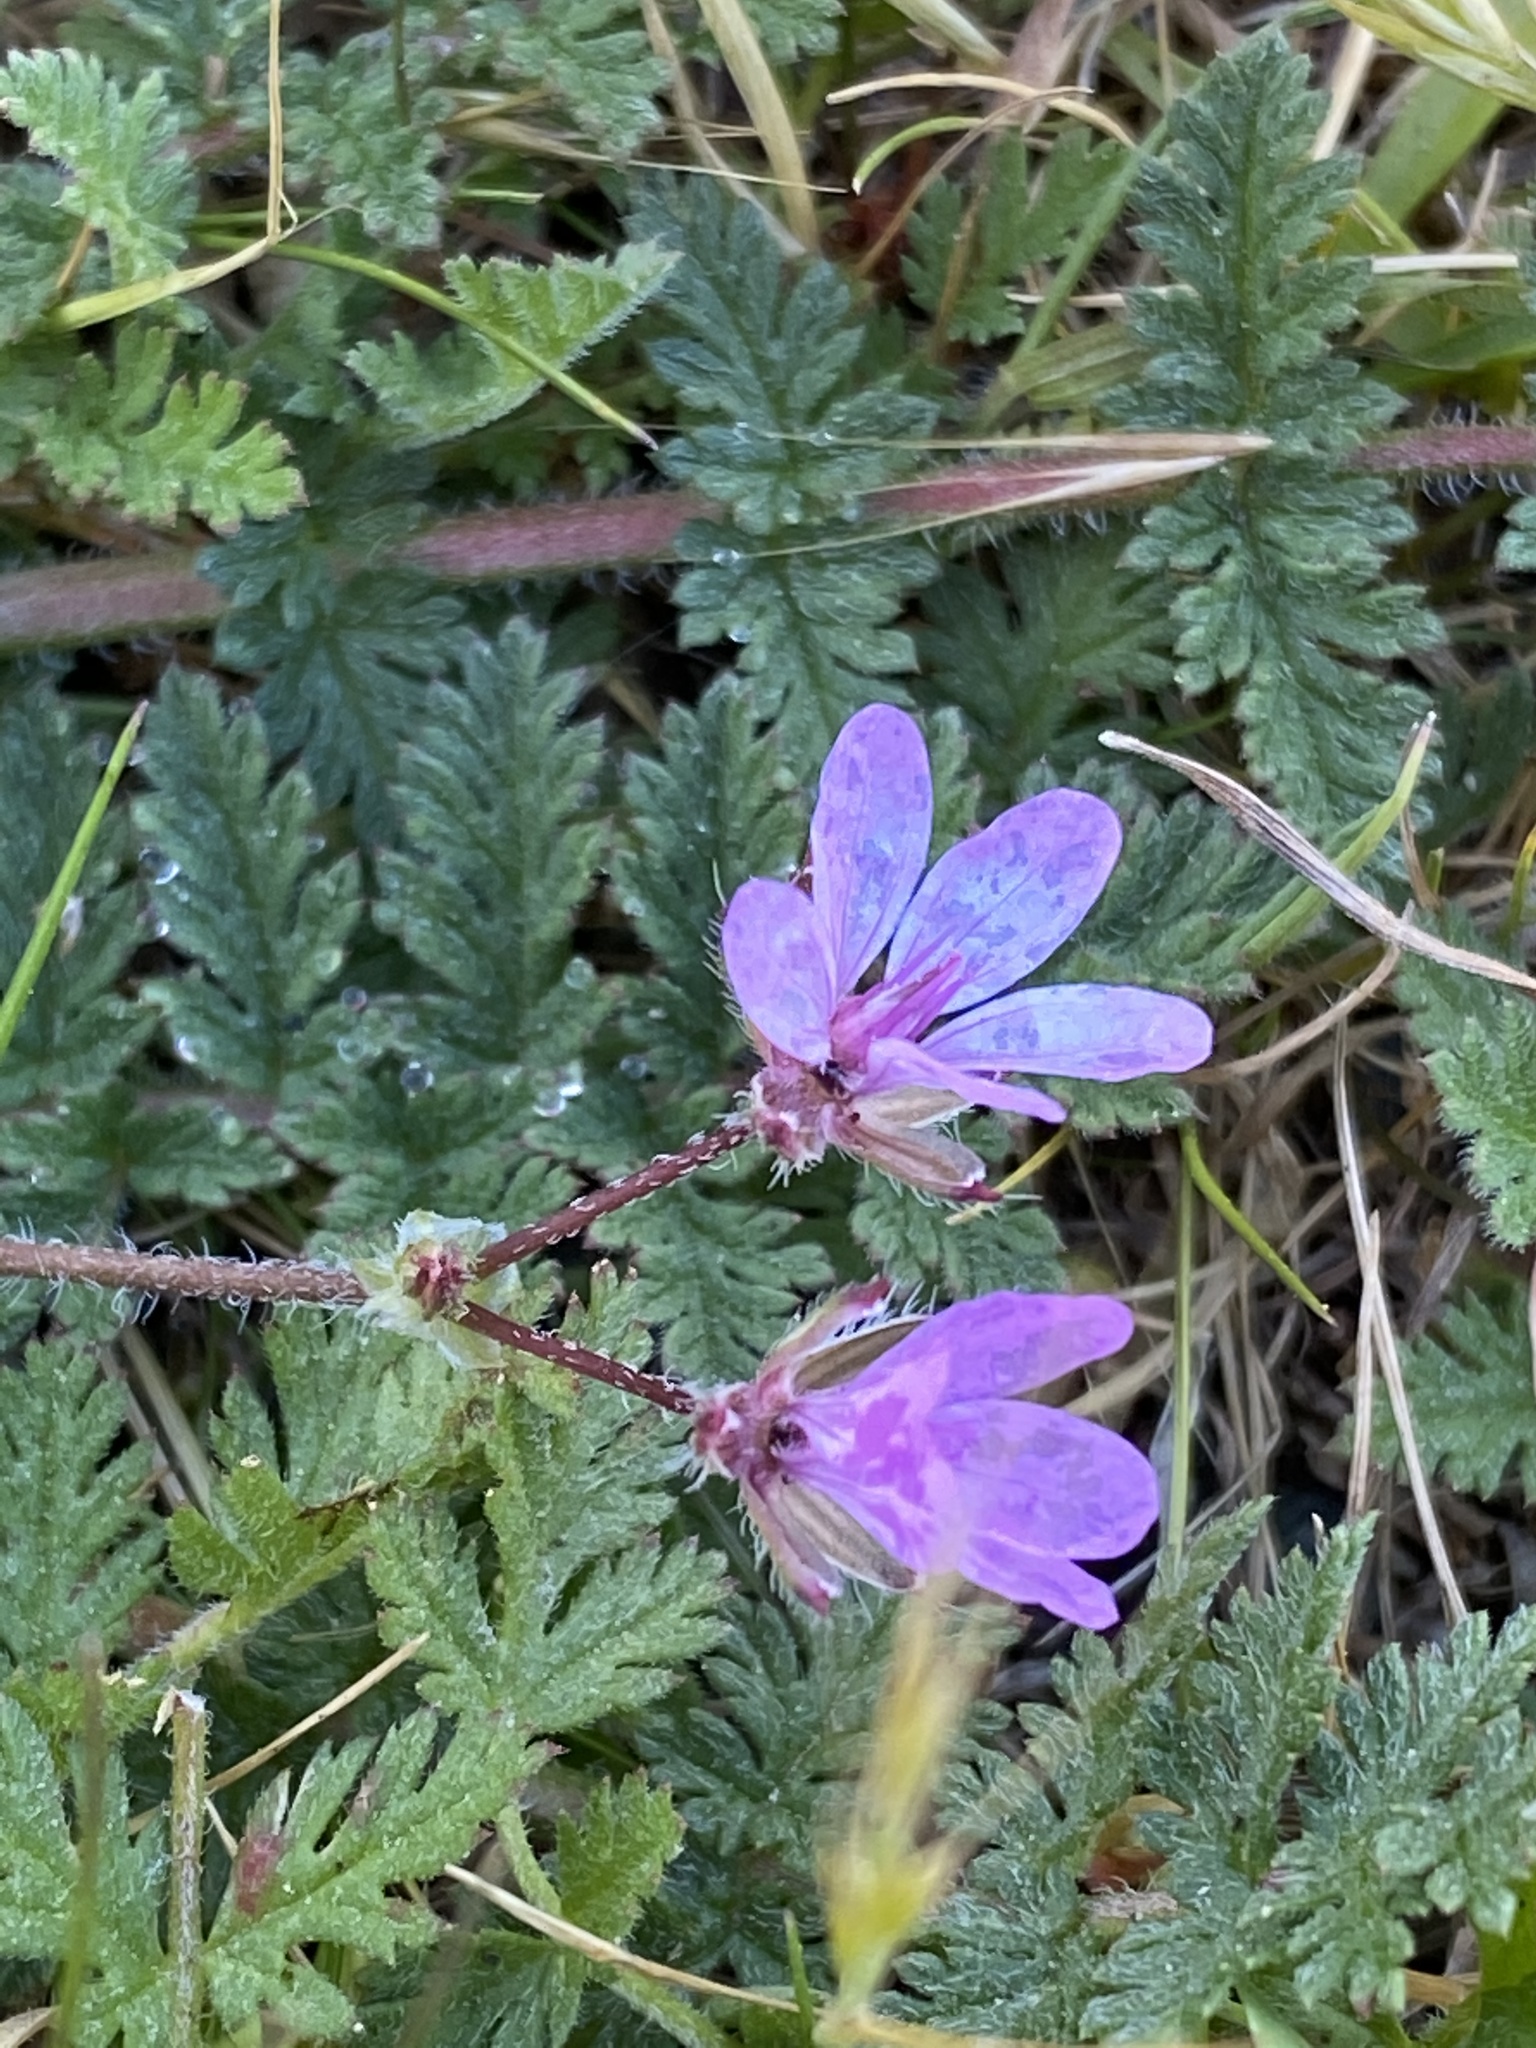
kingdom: Plantae
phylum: Tracheophyta
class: Magnoliopsida
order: Geraniales
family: Geraniaceae
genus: Erodium
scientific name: Erodium cicutarium
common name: Common stork's-bill
